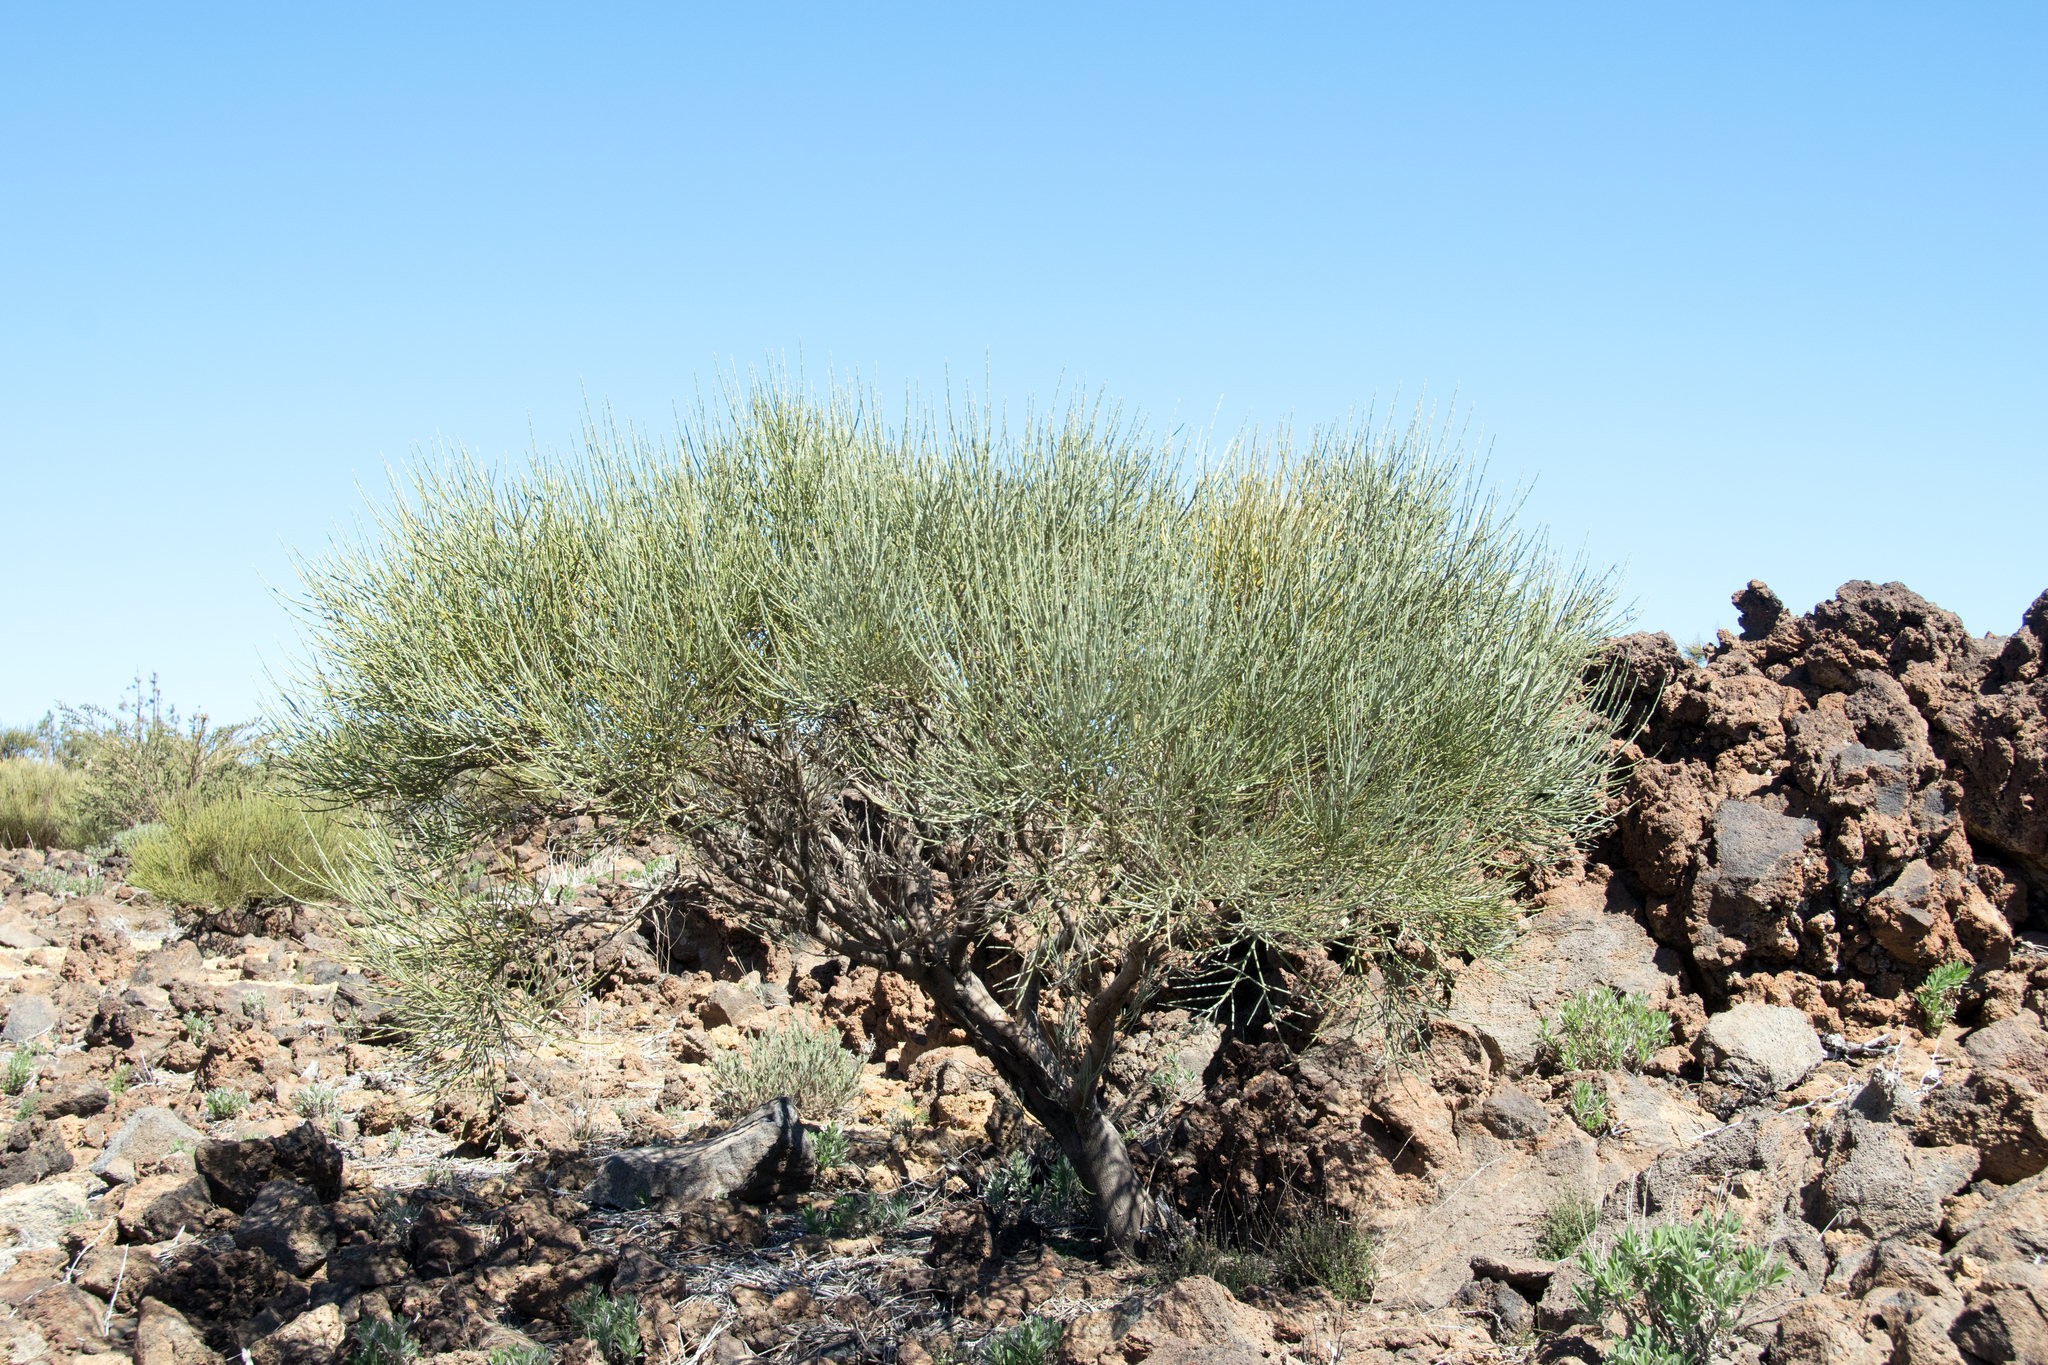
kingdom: Plantae
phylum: Tracheophyta
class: Magnoliopsida
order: Fabales
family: Fabaceae
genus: Cytisus
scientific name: Cytisus supranubius
